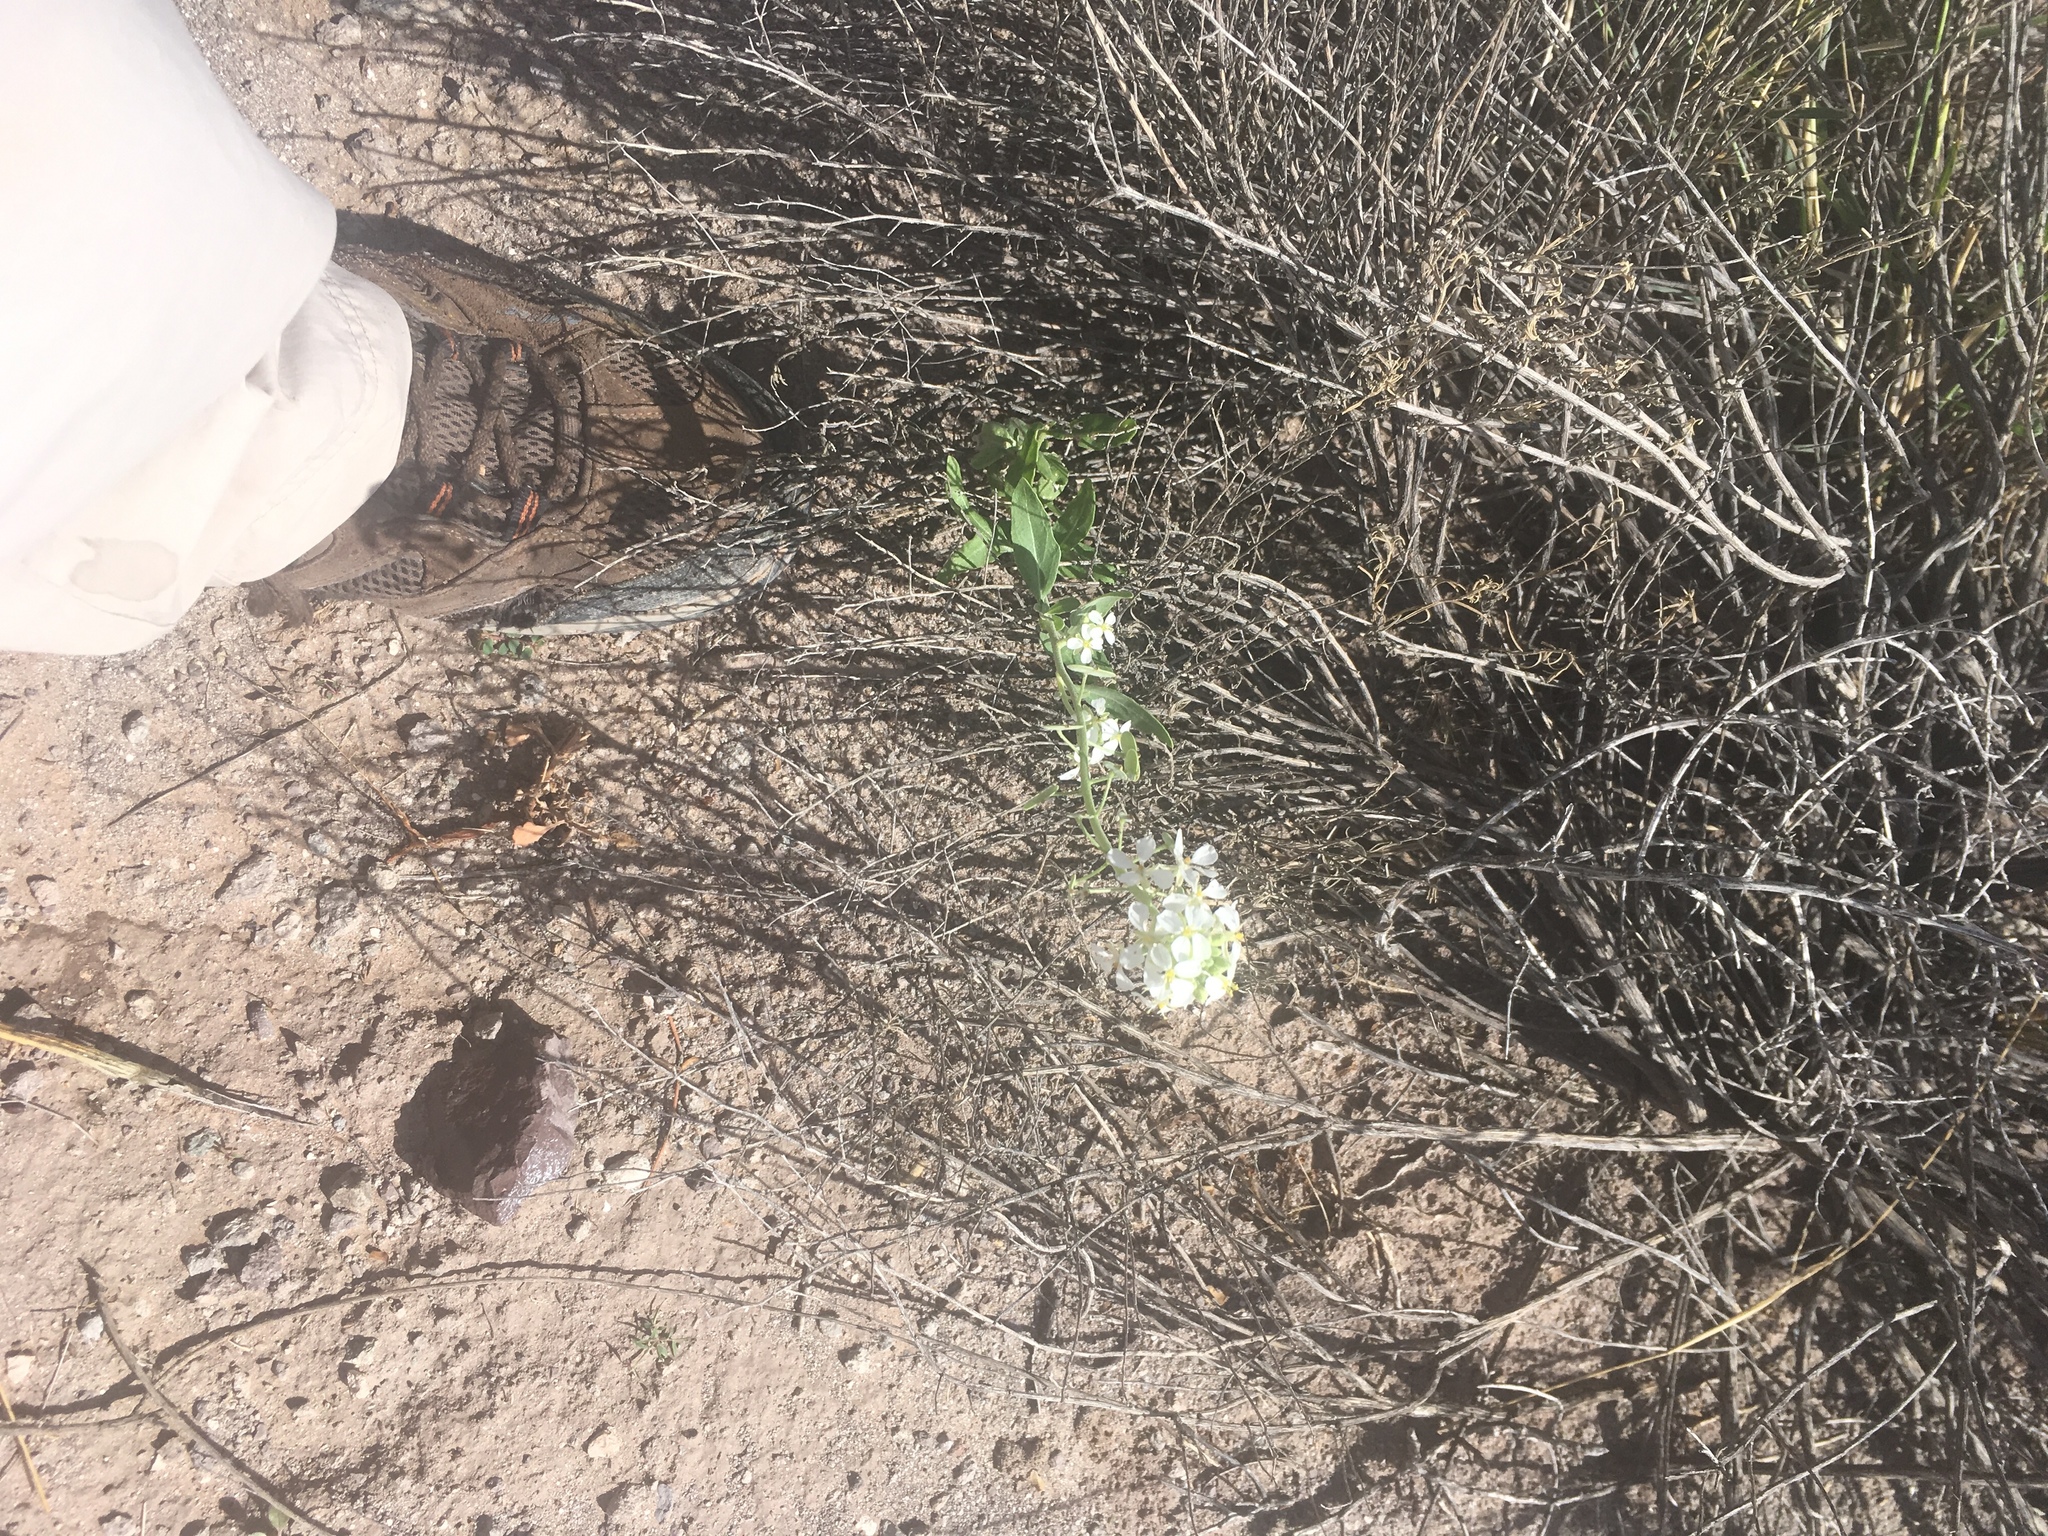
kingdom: Plantae
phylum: Tracheophyta
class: Magnoliopsida
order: Brassicales
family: Brassicaceae
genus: Dimorphocarpa
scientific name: Dimorphocarpa wislizenii
